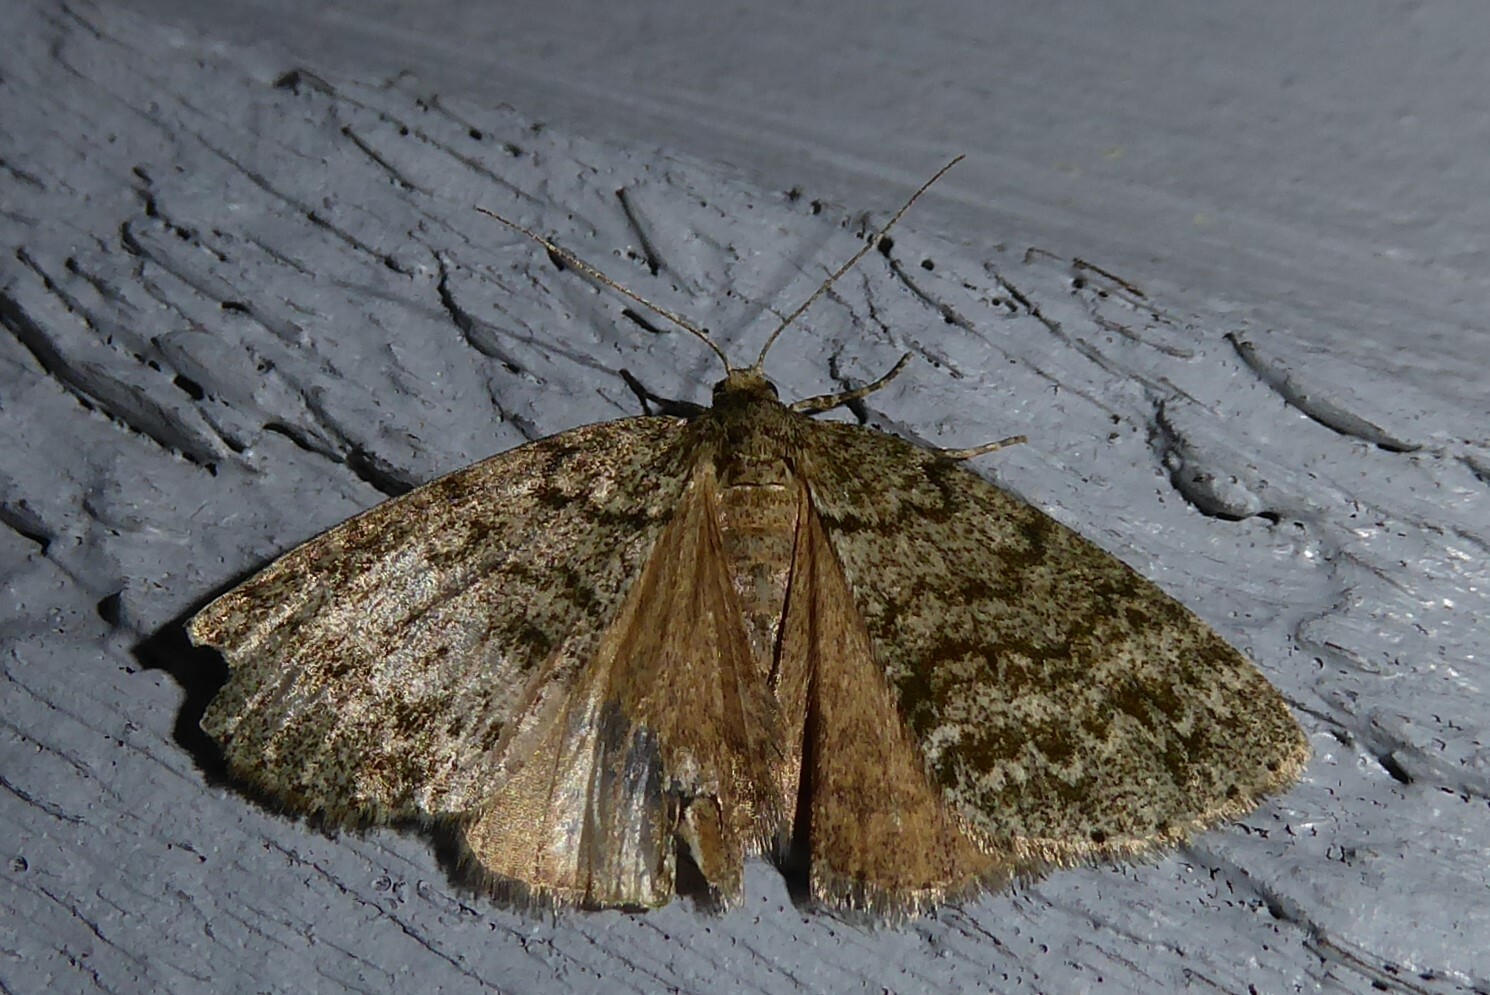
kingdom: Animalia
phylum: Arthropoda
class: Insecta
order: Lepidoptera
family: Geometridae
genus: Pseudocoremia
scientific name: Pseudocoremia indistincta
